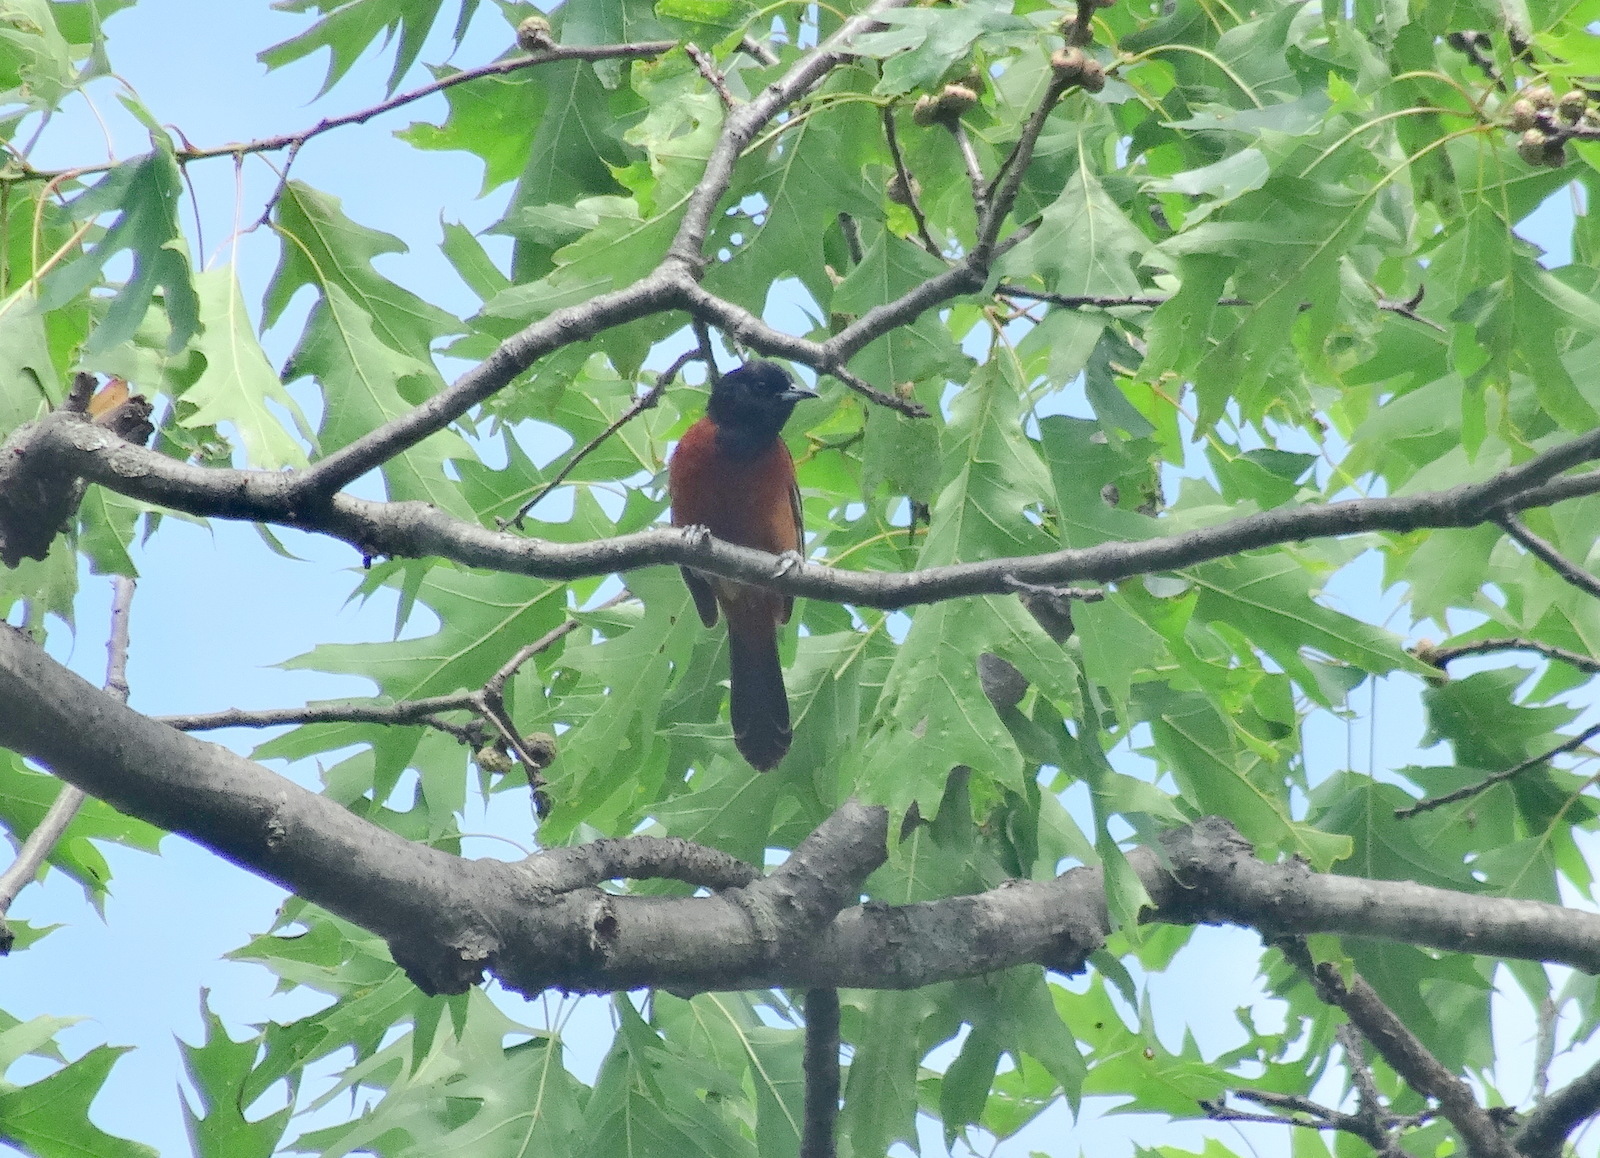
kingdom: Animalia
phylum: Chordata
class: Aves
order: Passeriformes
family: Icteridae
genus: Icterus
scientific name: Icterus spurius
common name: Orchard oriole
